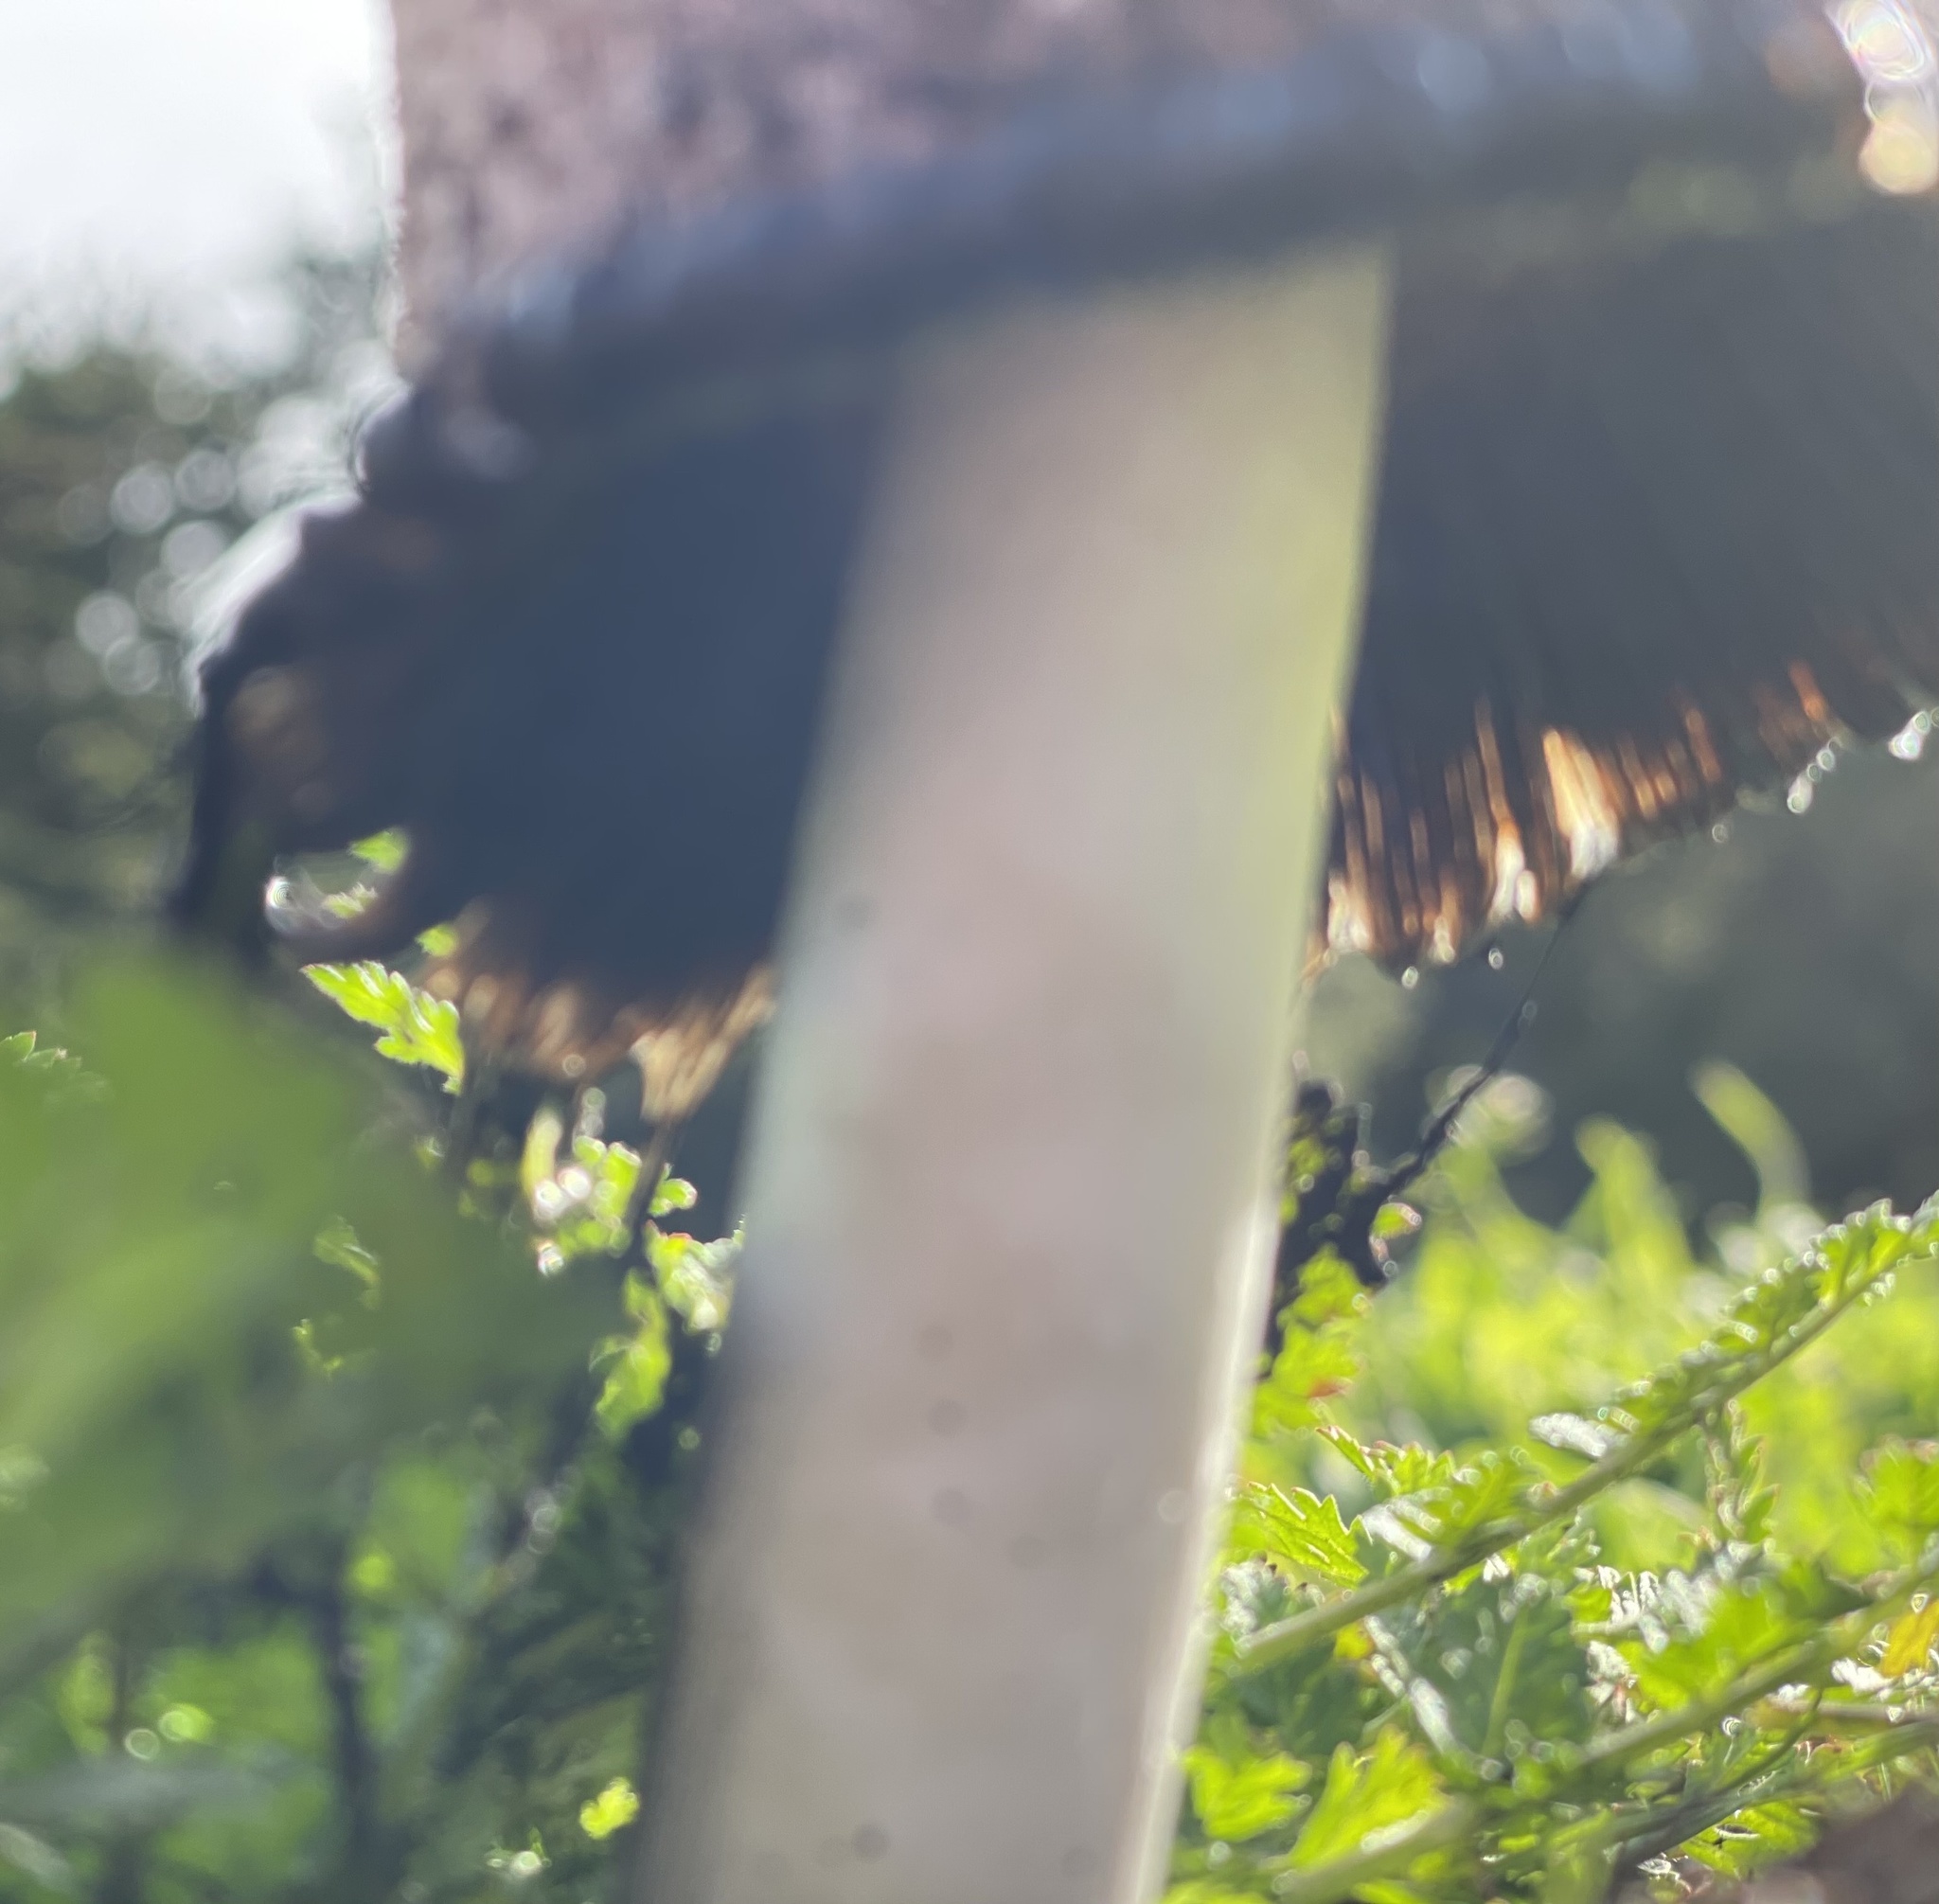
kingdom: Fungi
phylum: Basidiomycota
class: Agaricomycetes
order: Agaricales
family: Agaricaceae
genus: Coprinus
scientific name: Coprinus comatus
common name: Lawyer's wig
